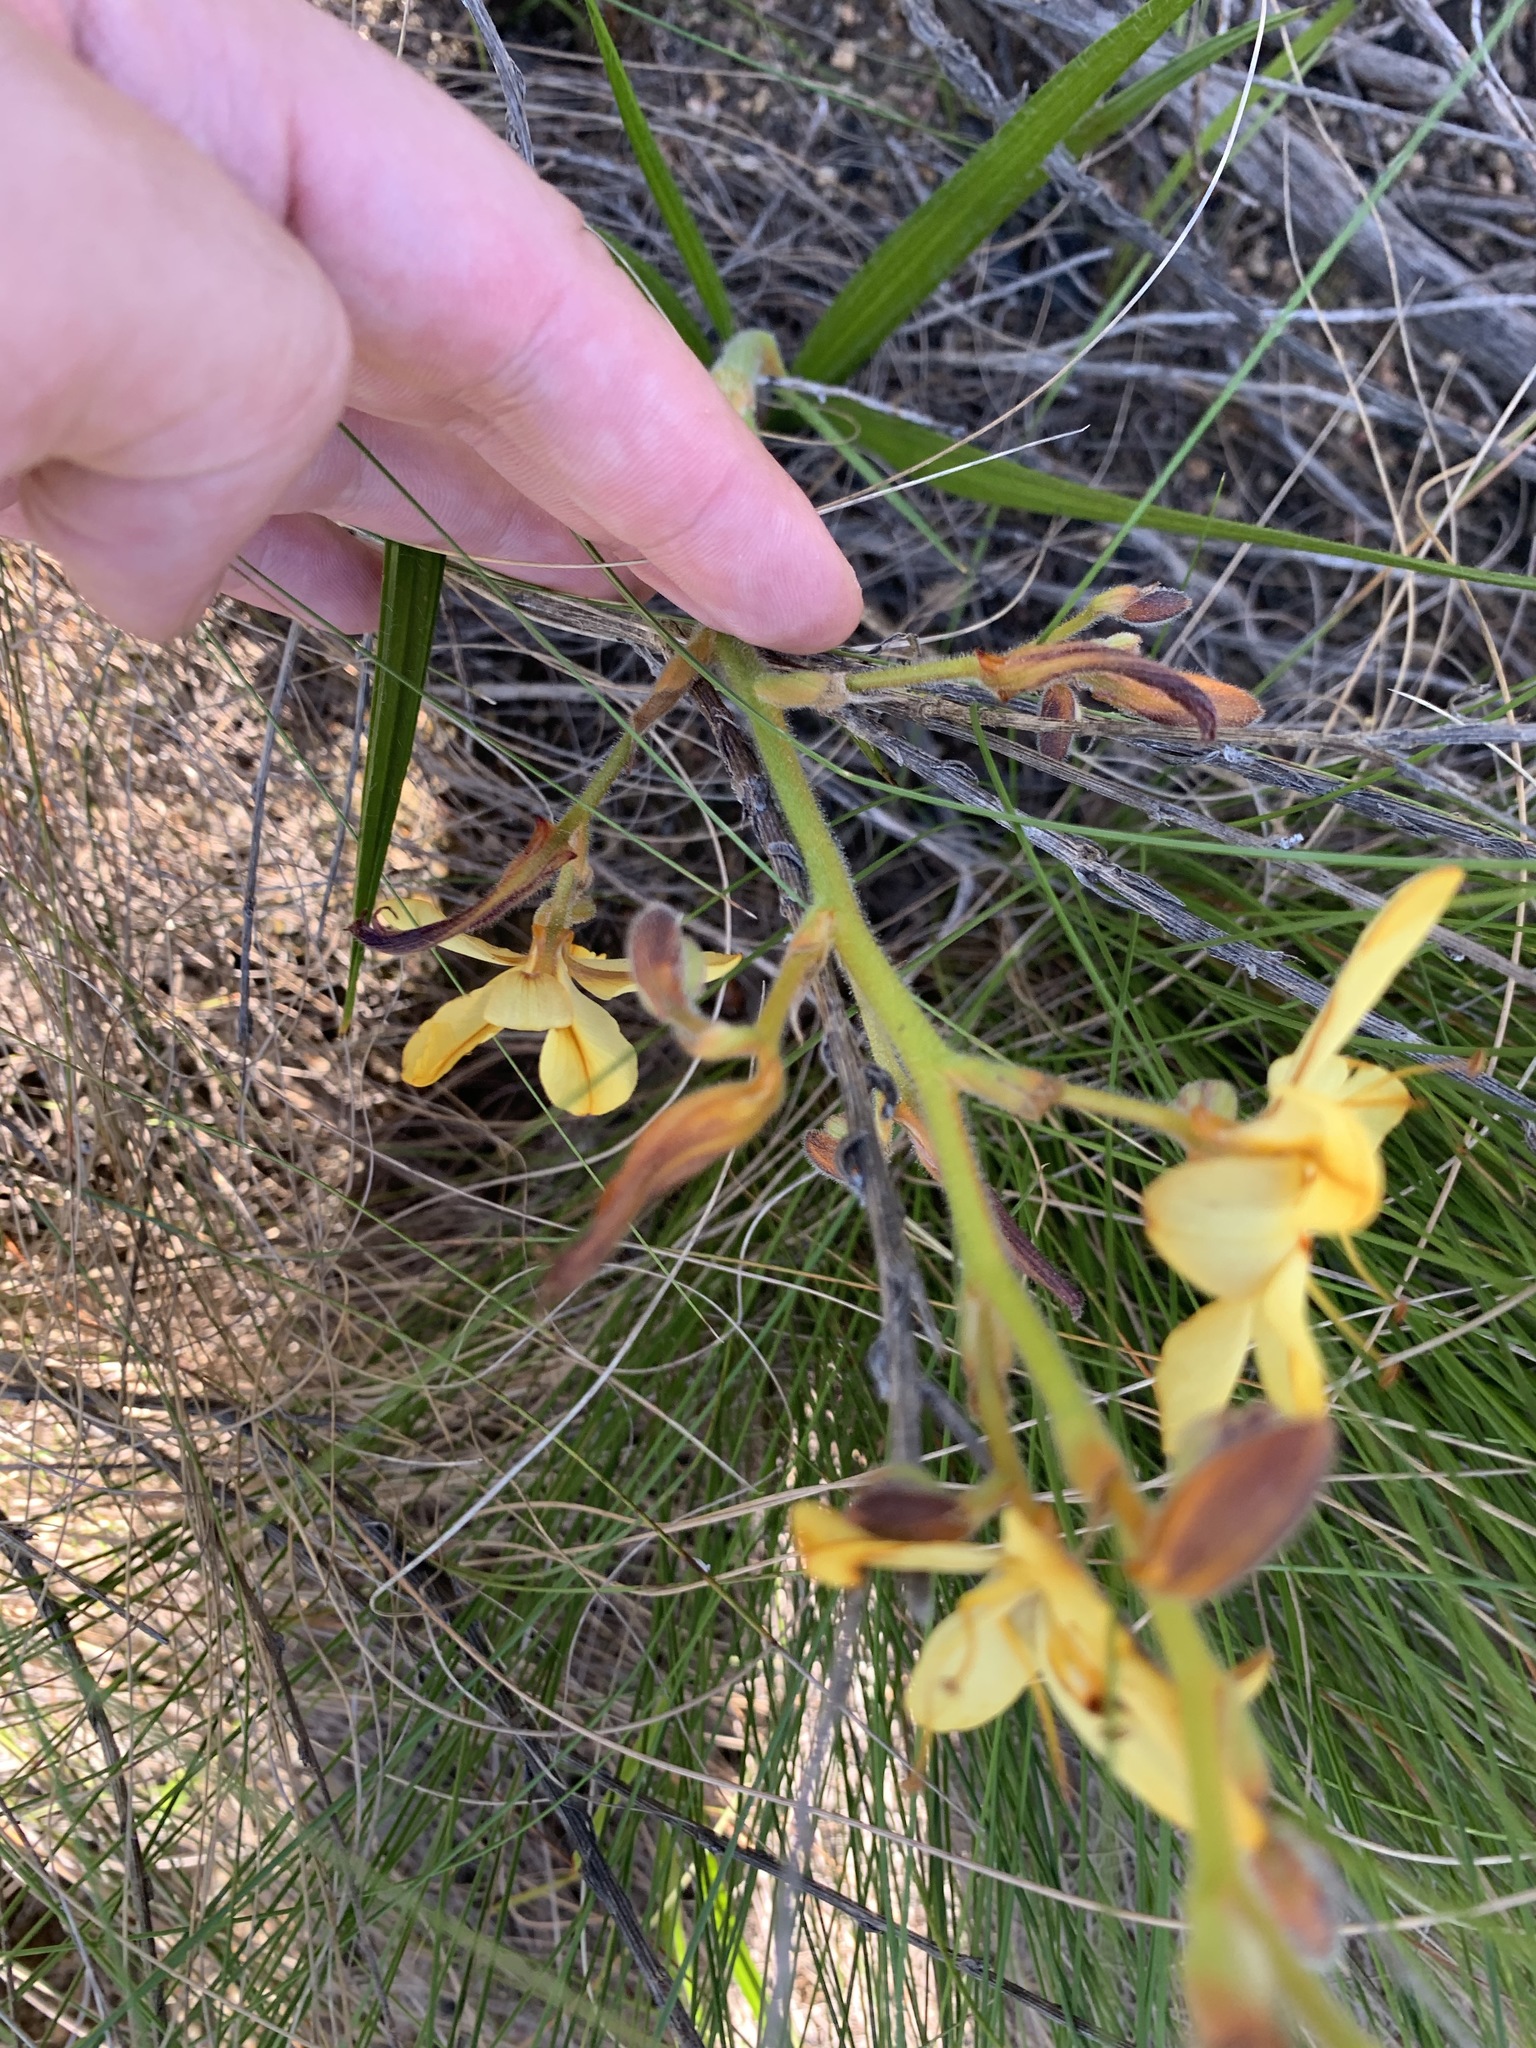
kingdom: Plantae
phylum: Tracheophyta
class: Liliopsida
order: Commelinales
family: Haemodoraceae
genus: Wachendorfia
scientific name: Wachendorfia paniculata
